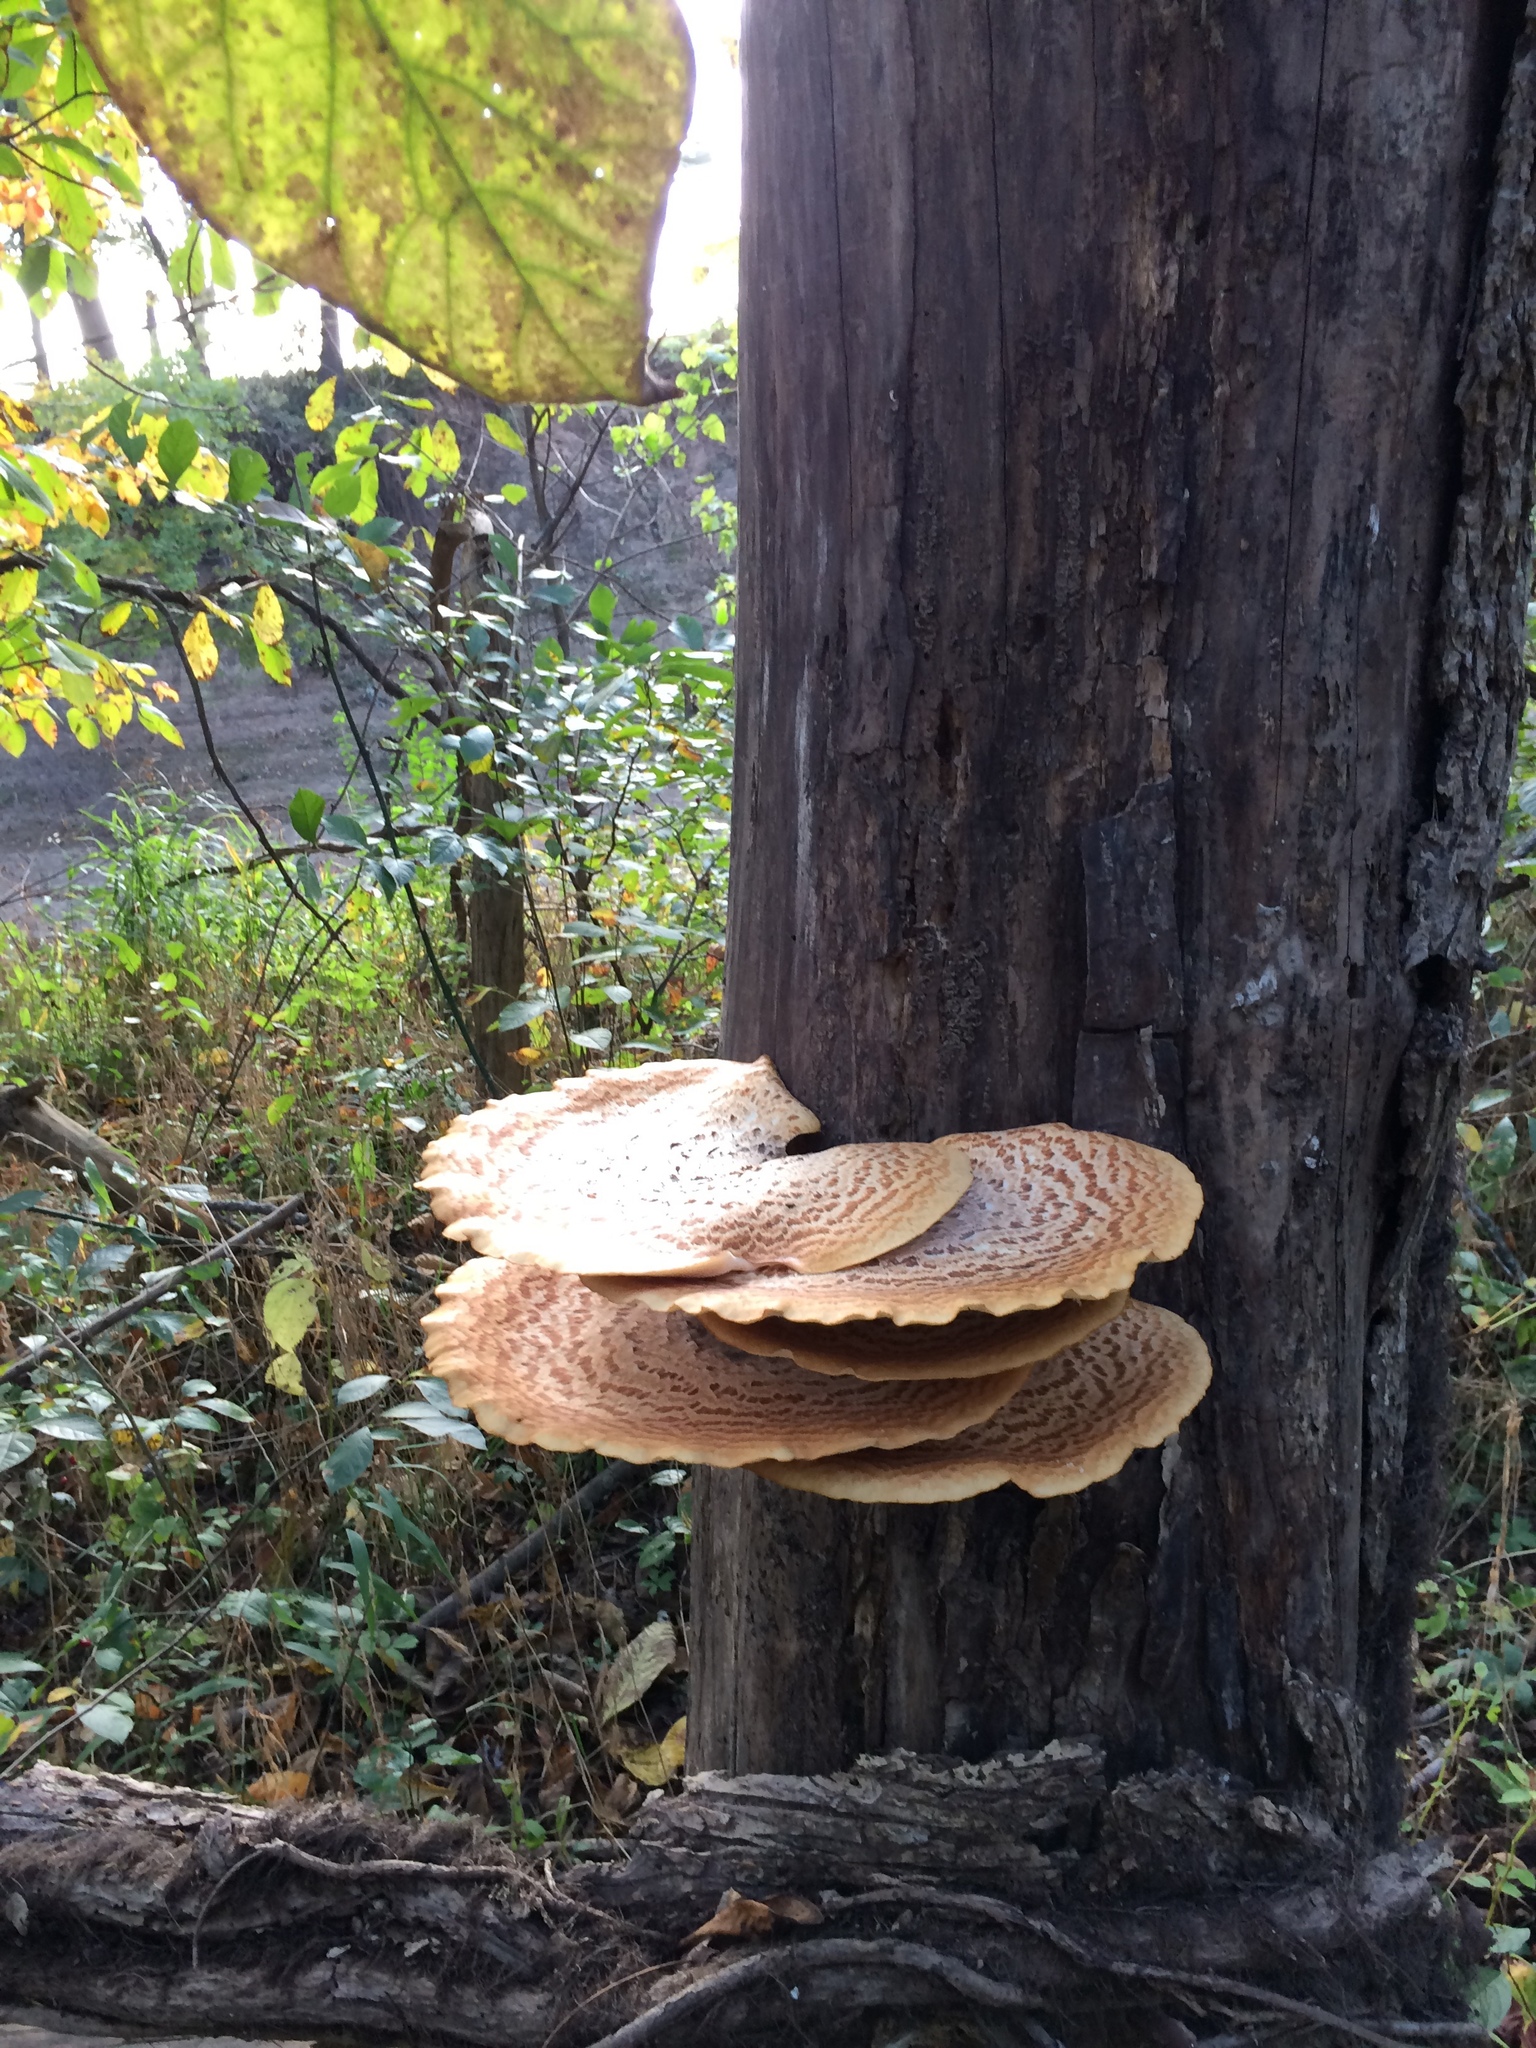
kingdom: Fungi
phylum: Basidiomycota
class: Agaricomycetes
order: Polyporales
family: Polyporaceae
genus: Cerioporus
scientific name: Cerioporus squamosus
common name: Dryad's saddle
